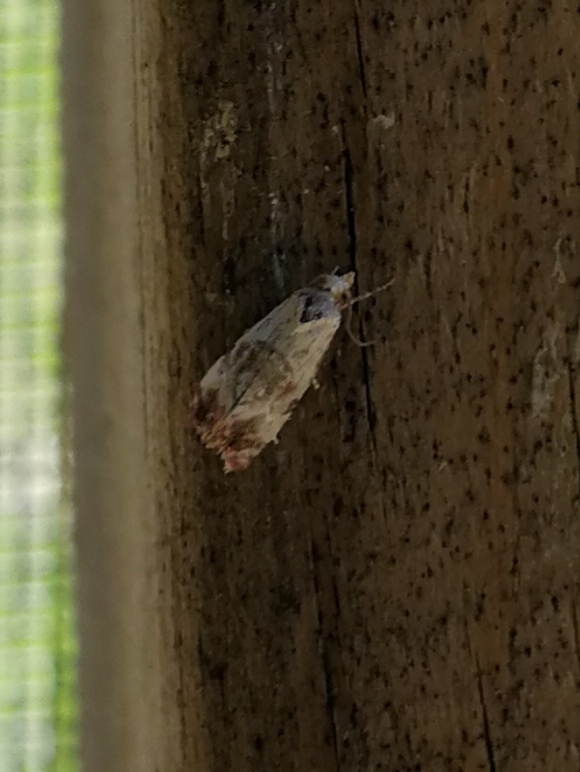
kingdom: Animalia
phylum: Arthropoda
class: Insecta
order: Lepidoptera
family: Tortricidae
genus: Cochylis
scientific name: Cochylis hybridella
